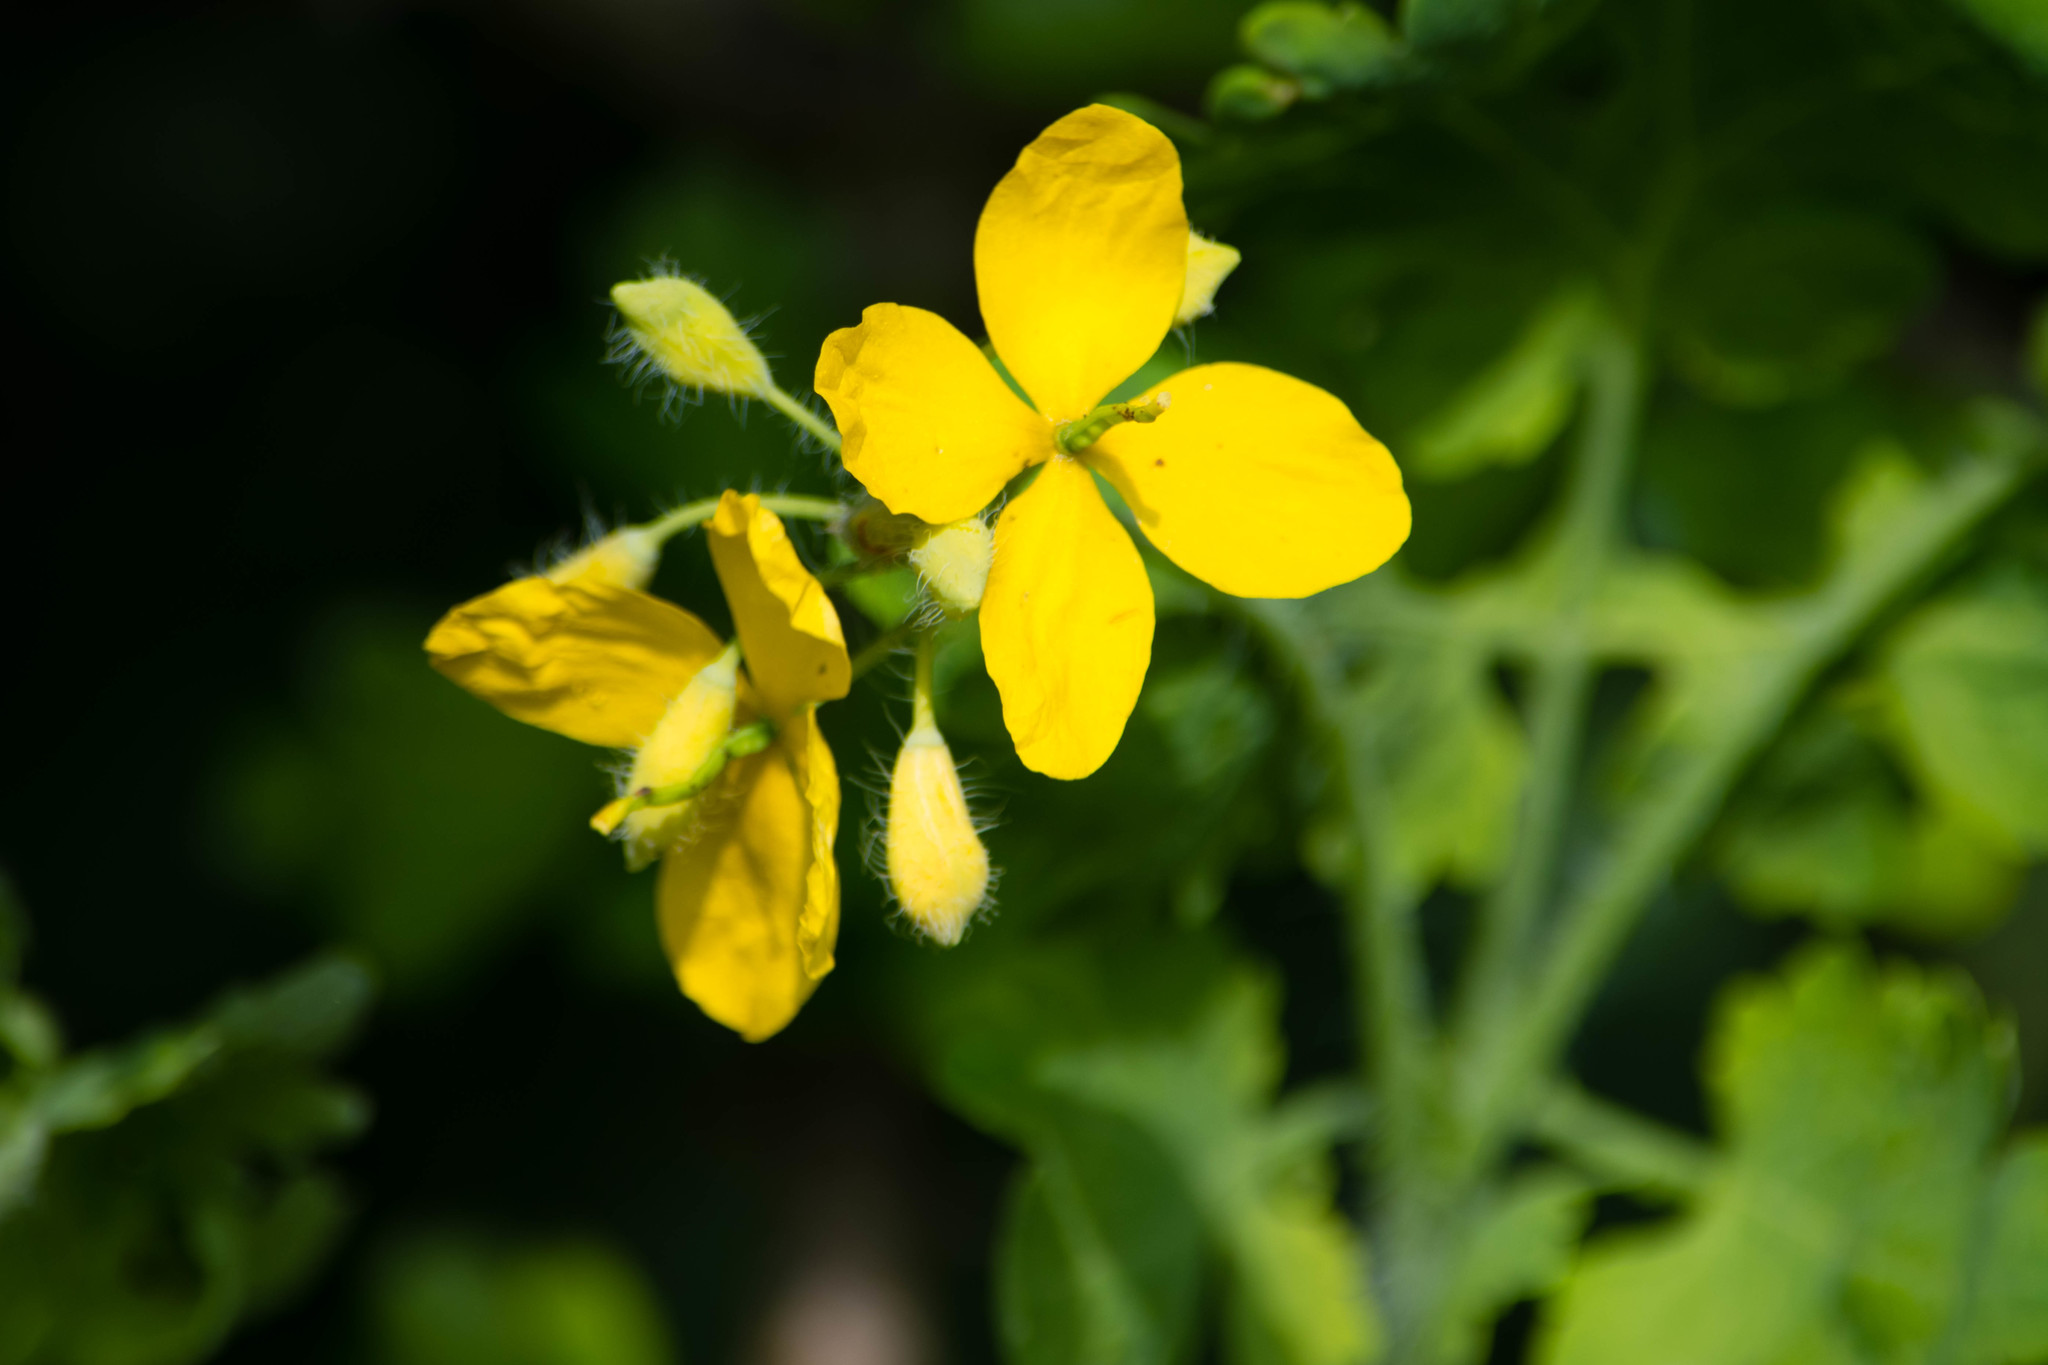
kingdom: Plantae
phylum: Tracheophyta
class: Magnoliopsida
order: Ranunculales
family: Papaveraceae
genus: Chelidonium
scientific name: Chelidonium majus
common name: Greater celandine
